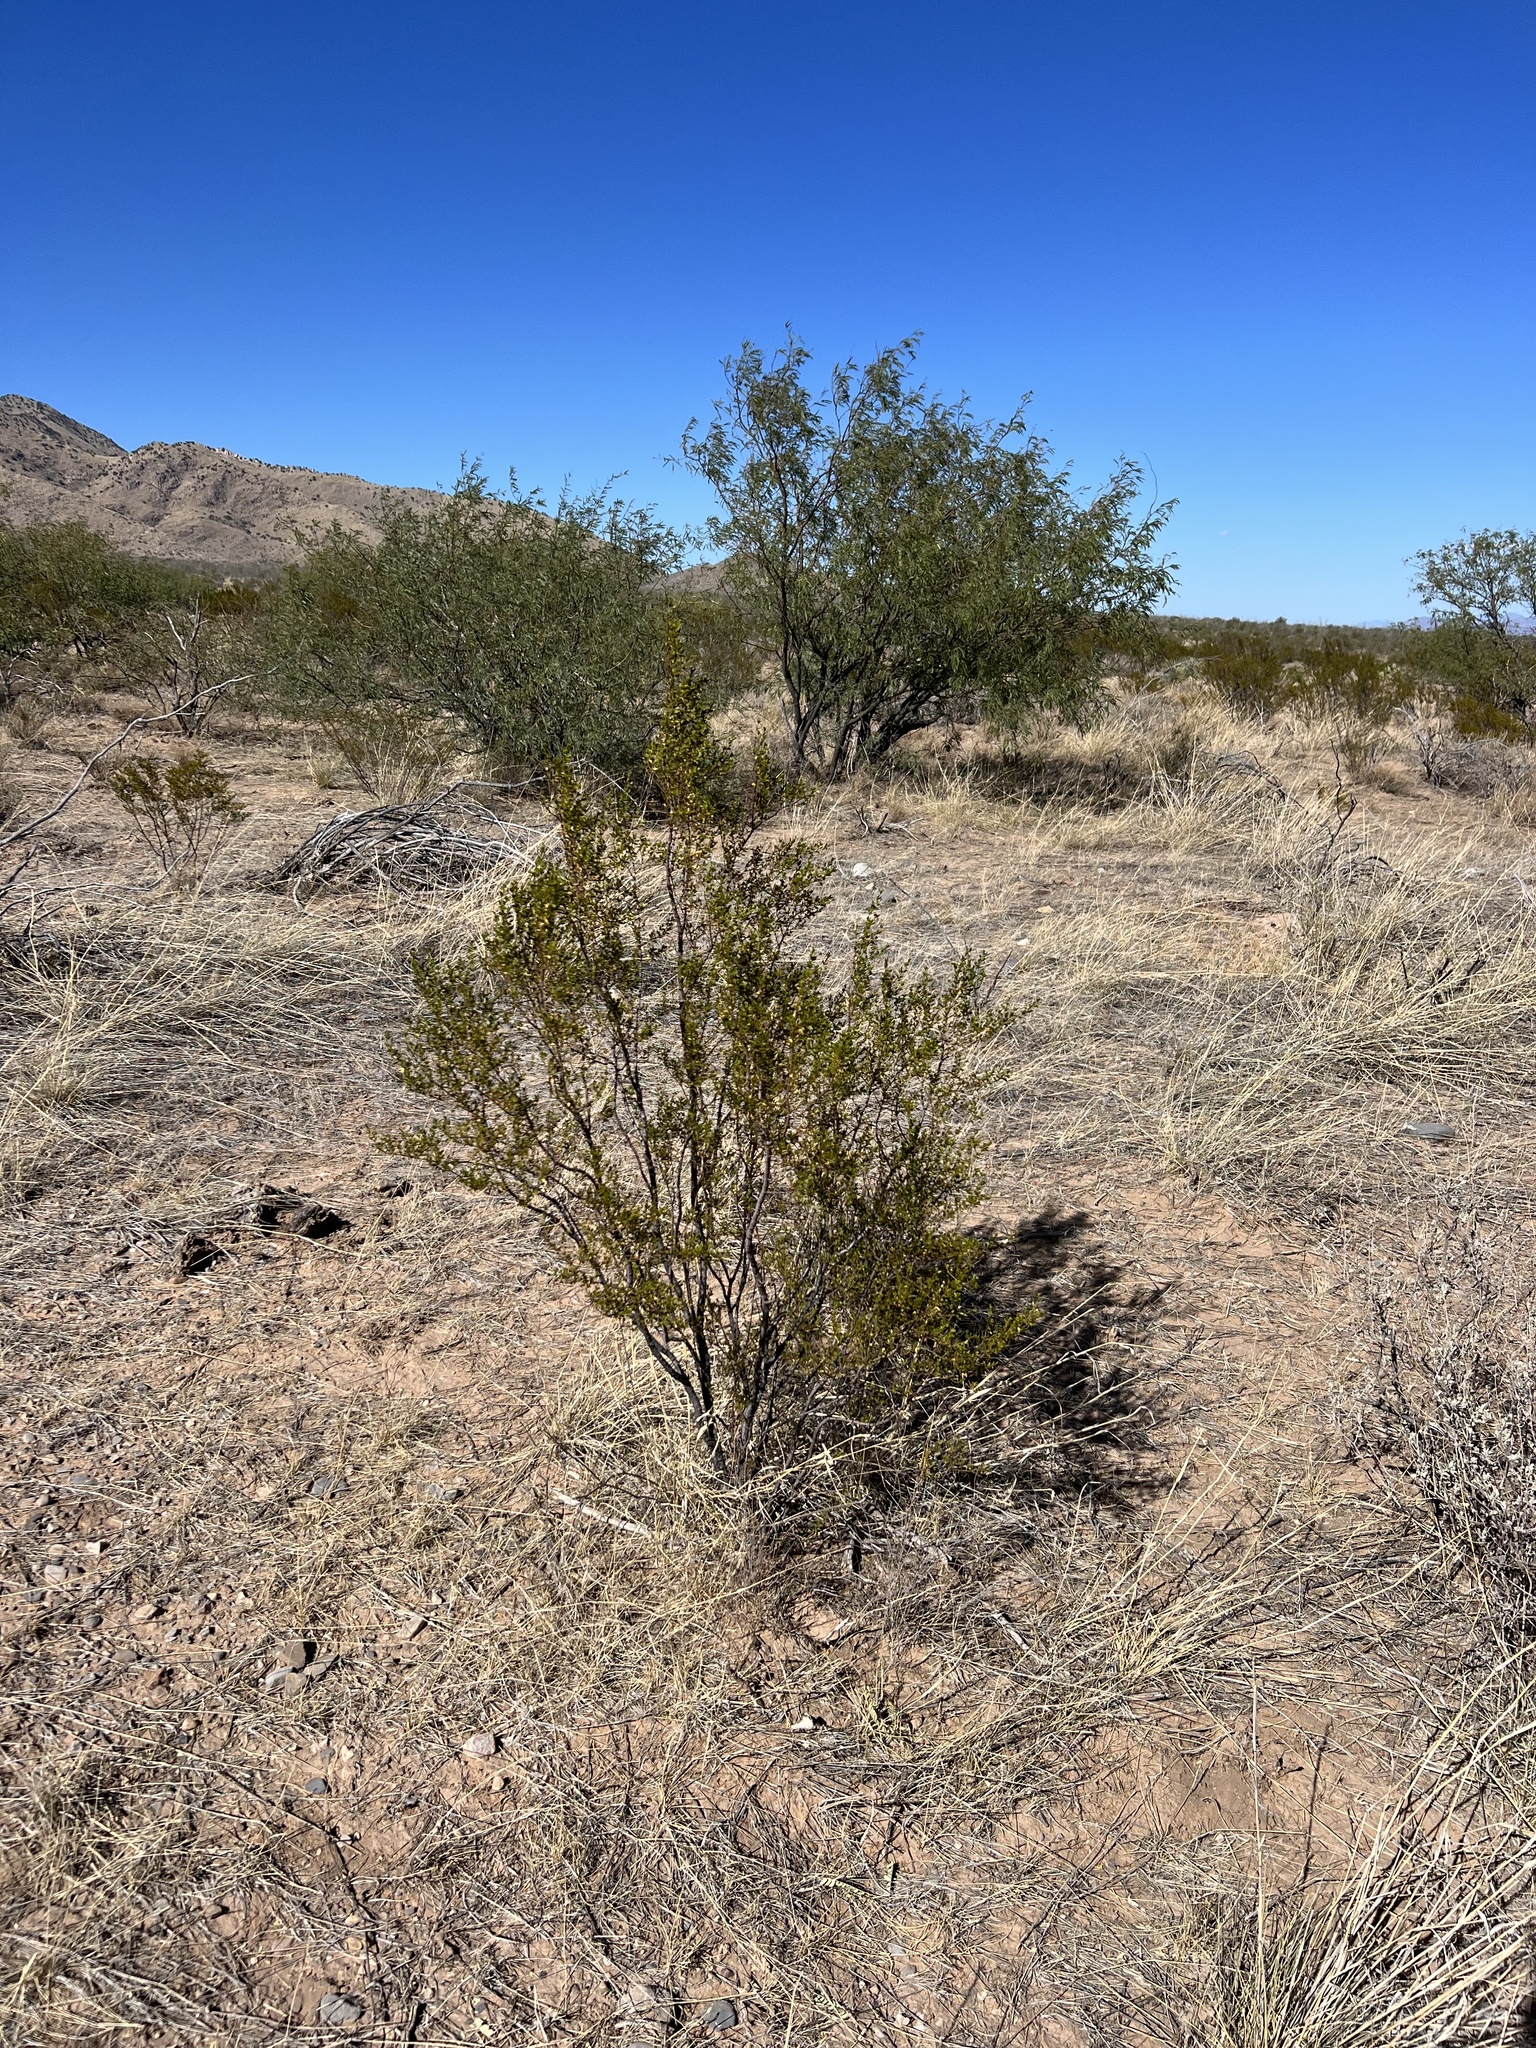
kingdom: Plantae
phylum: Tracheophyta
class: Magnoliopsida
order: Zygophyllales
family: Zygophyllaceae
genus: Larrea
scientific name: Larrea tridentata
